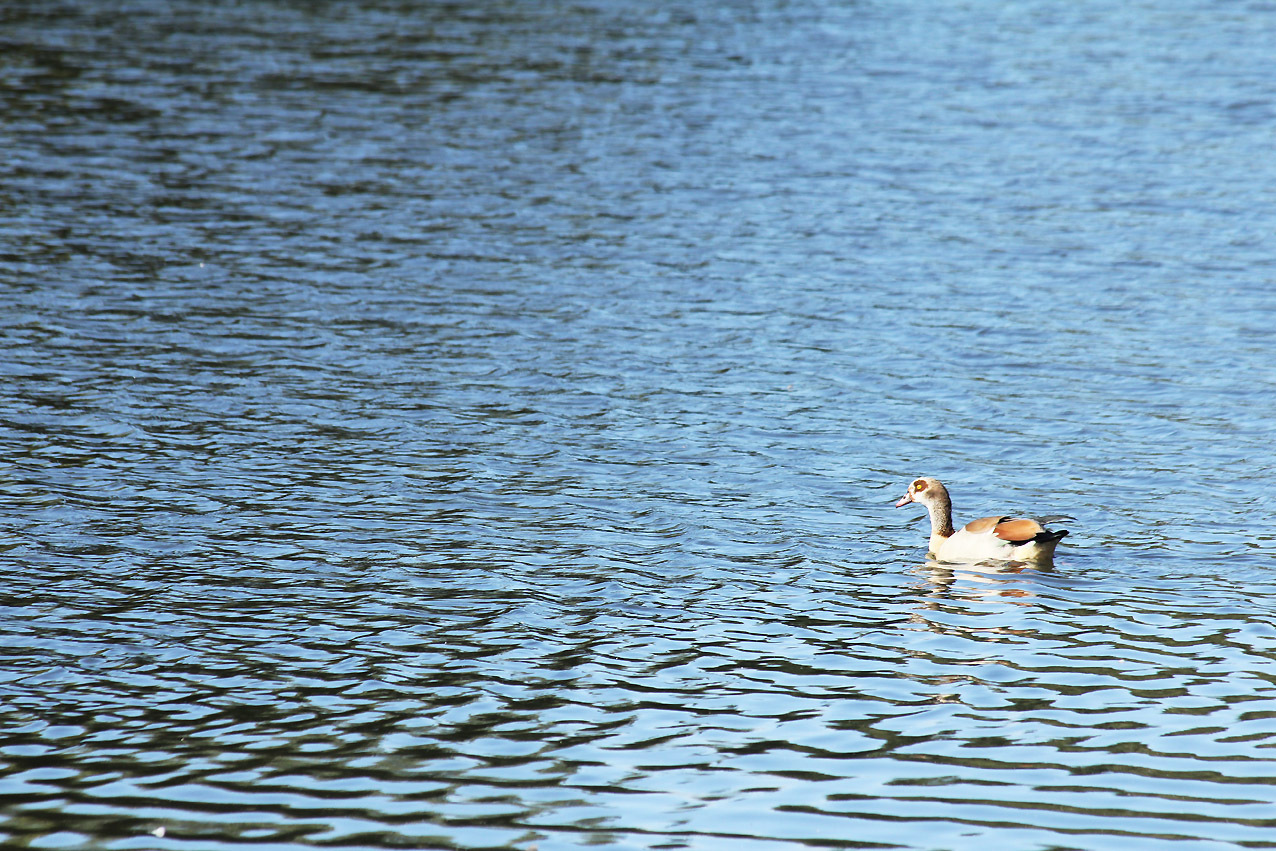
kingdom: Animalia
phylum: Chordata
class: Aves
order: Anseriformes
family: Anatidae
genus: Alopochen
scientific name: Alopochen aegyptiaca
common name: Egyptian goose
